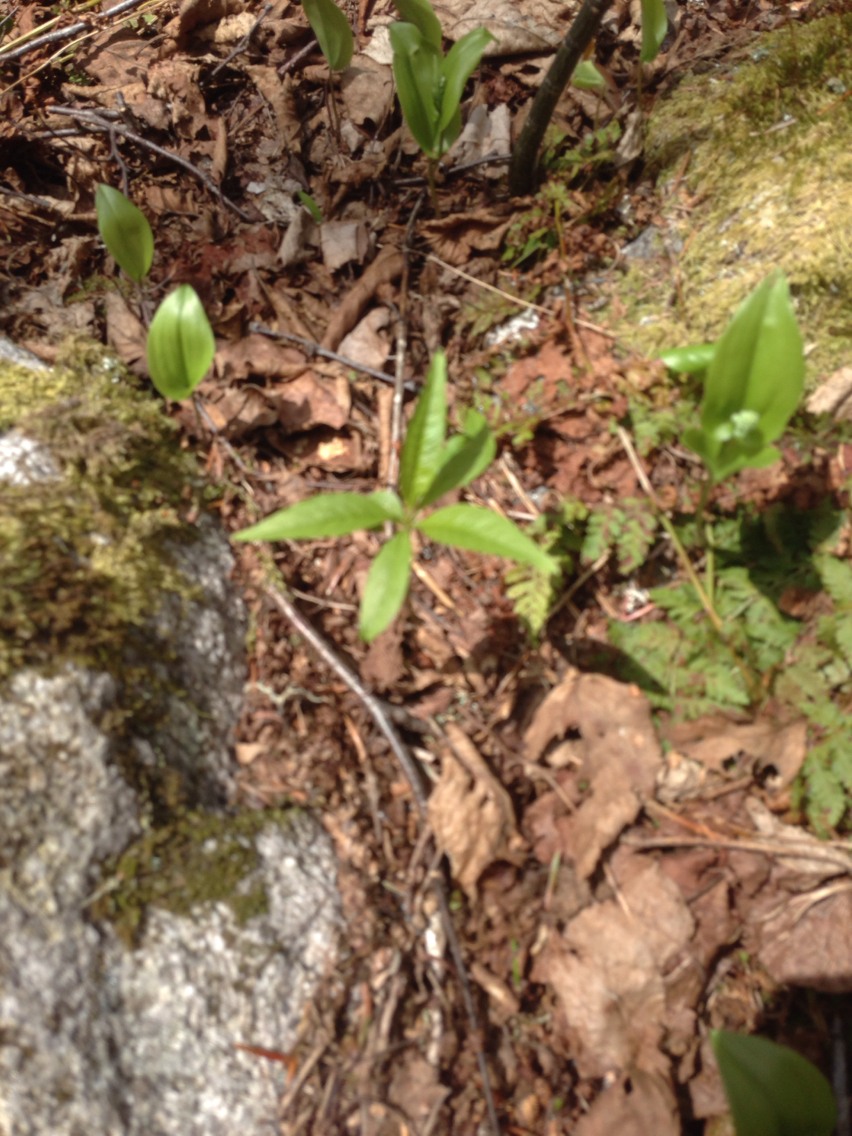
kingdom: Plantae
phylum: Tracheophyta
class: Magnoliopsida
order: Ericales
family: Primulaceae
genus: Lysimachia
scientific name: Lysimachia borealis
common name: American starflower
